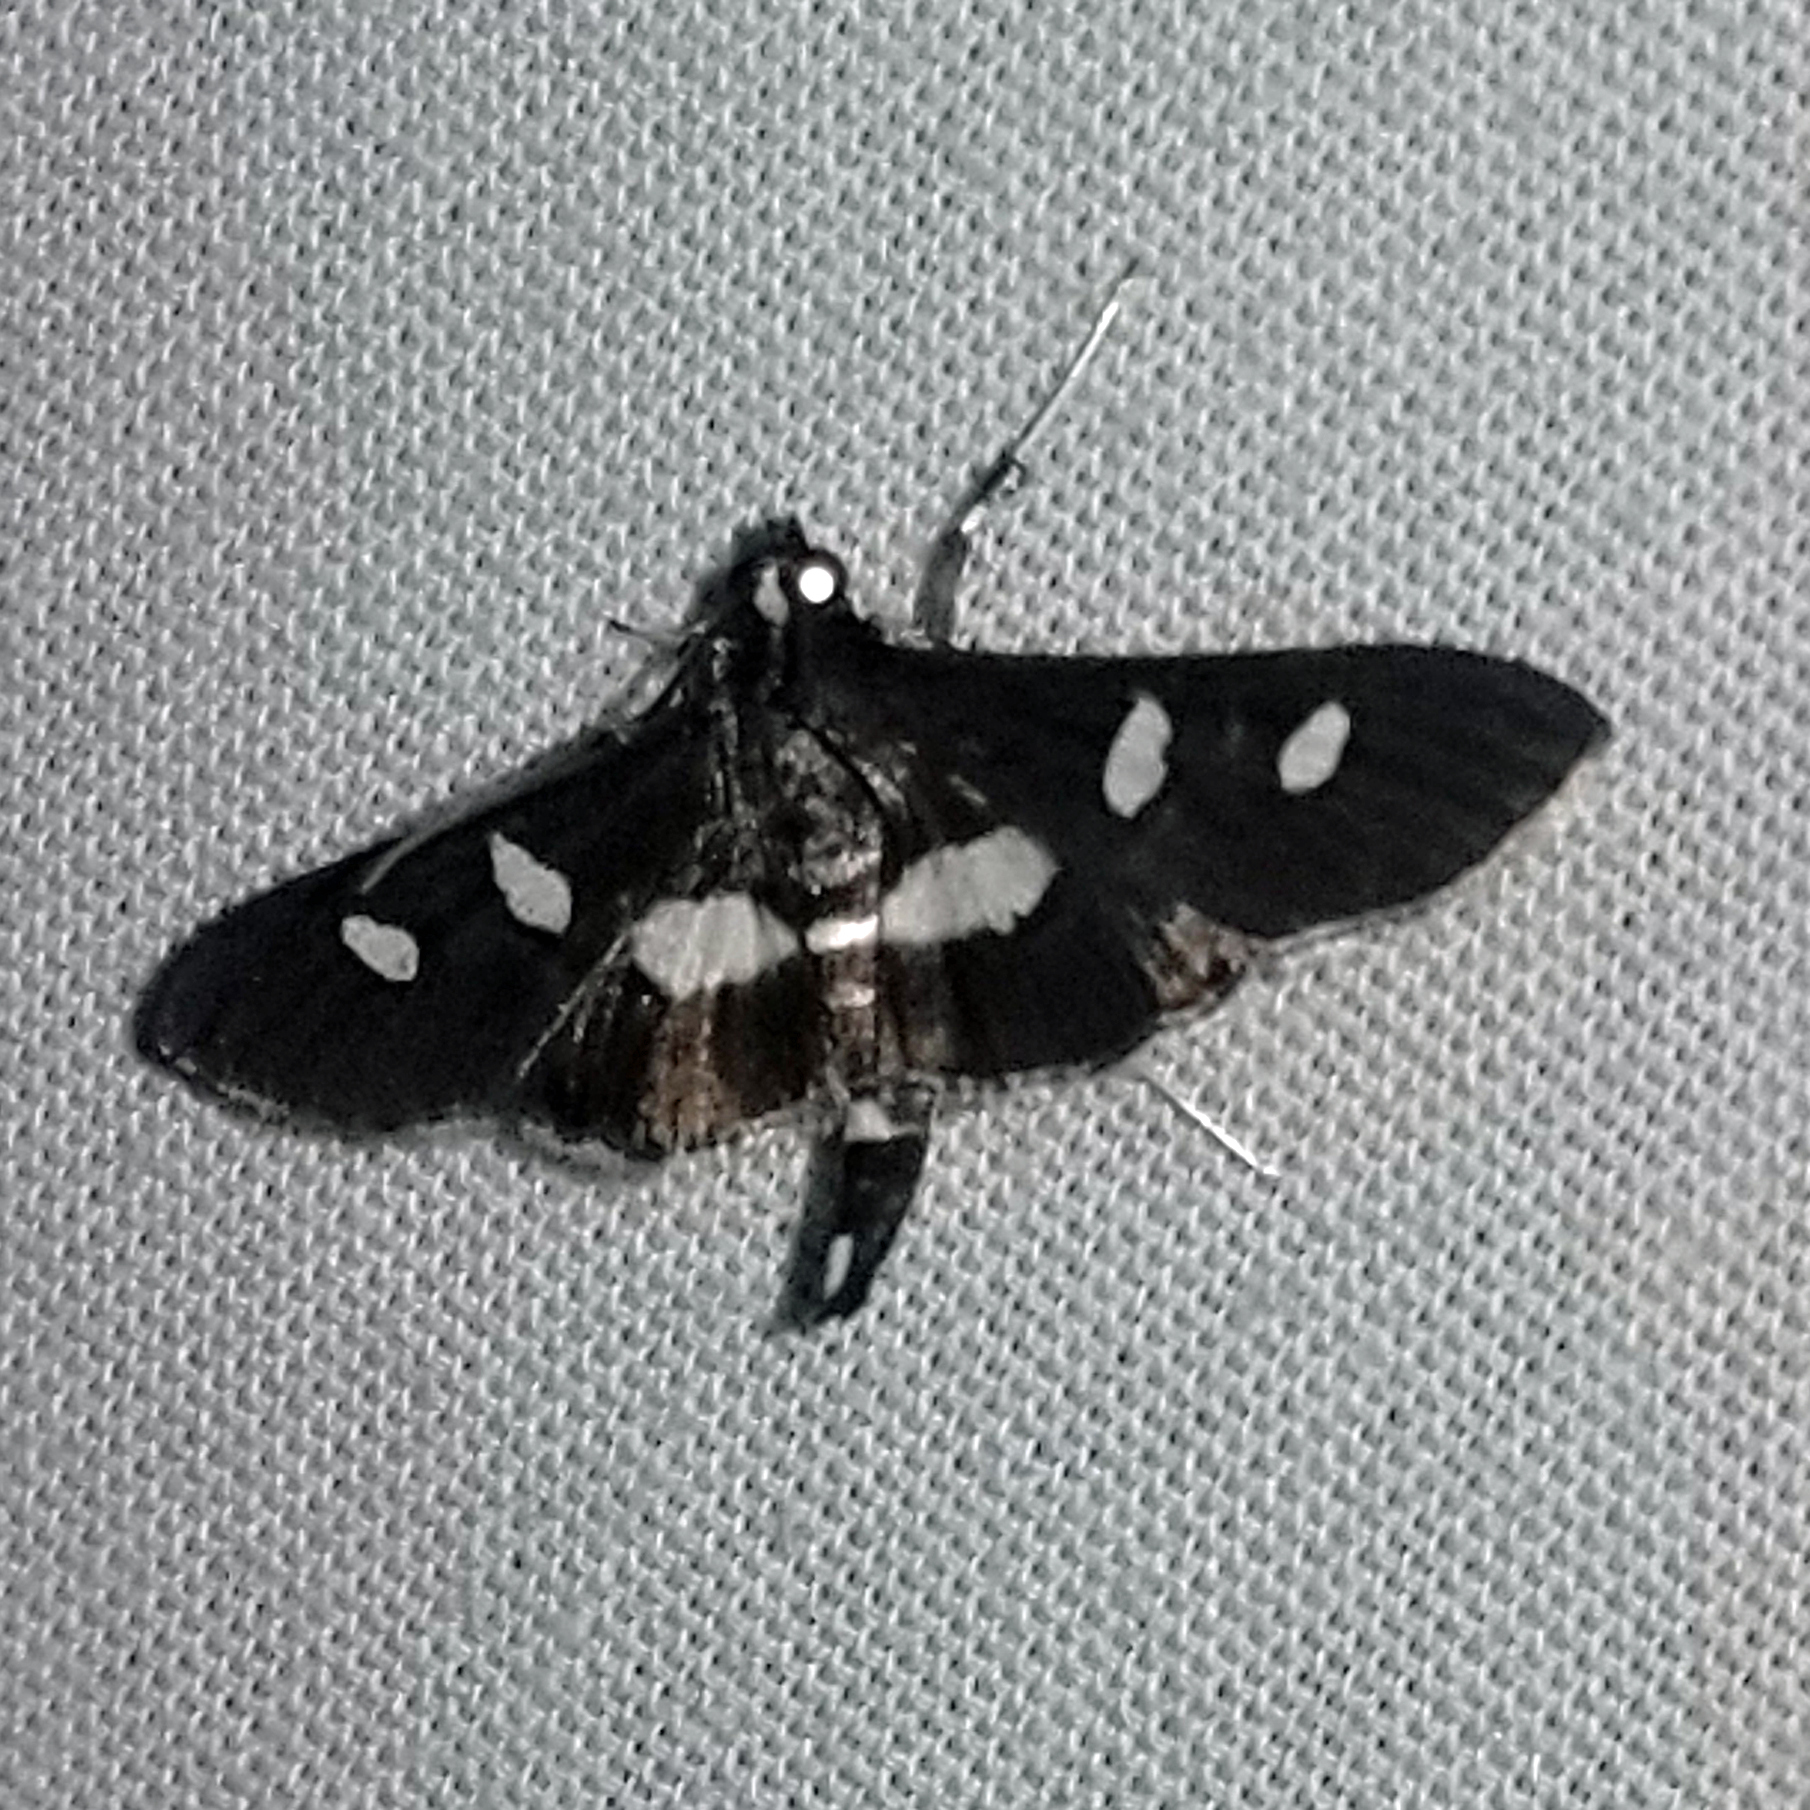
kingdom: Animalia
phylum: Arthropoda
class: Insecta
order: Lepidoptera
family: Crambidae
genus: Desmia
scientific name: Desmia
